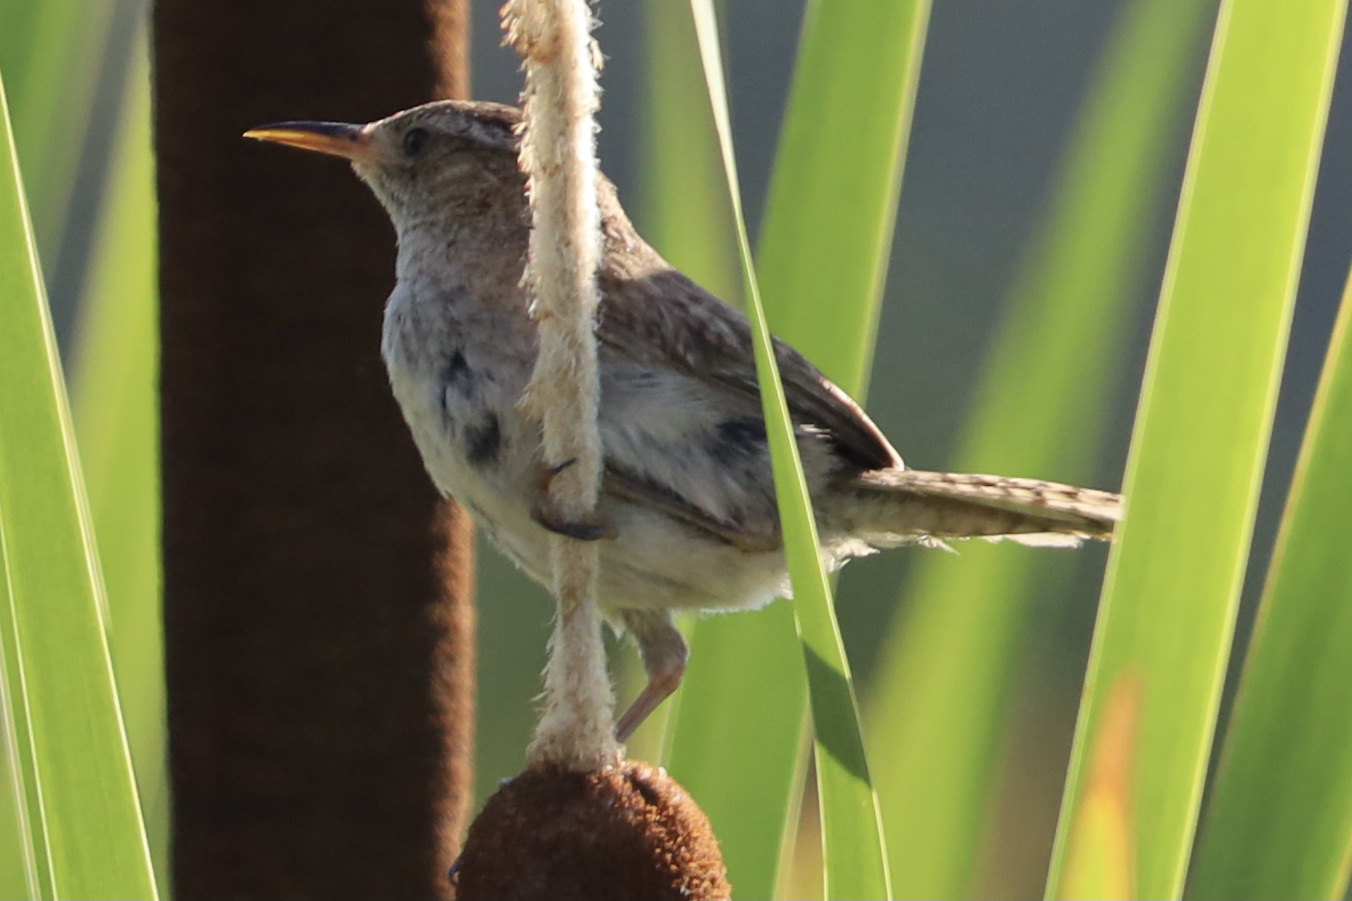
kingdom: Animalia
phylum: Chordata
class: Aves
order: Passeriformes
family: Troglodytidae
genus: Cistothorus
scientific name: Cistothorus palustris
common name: Marsh wren
